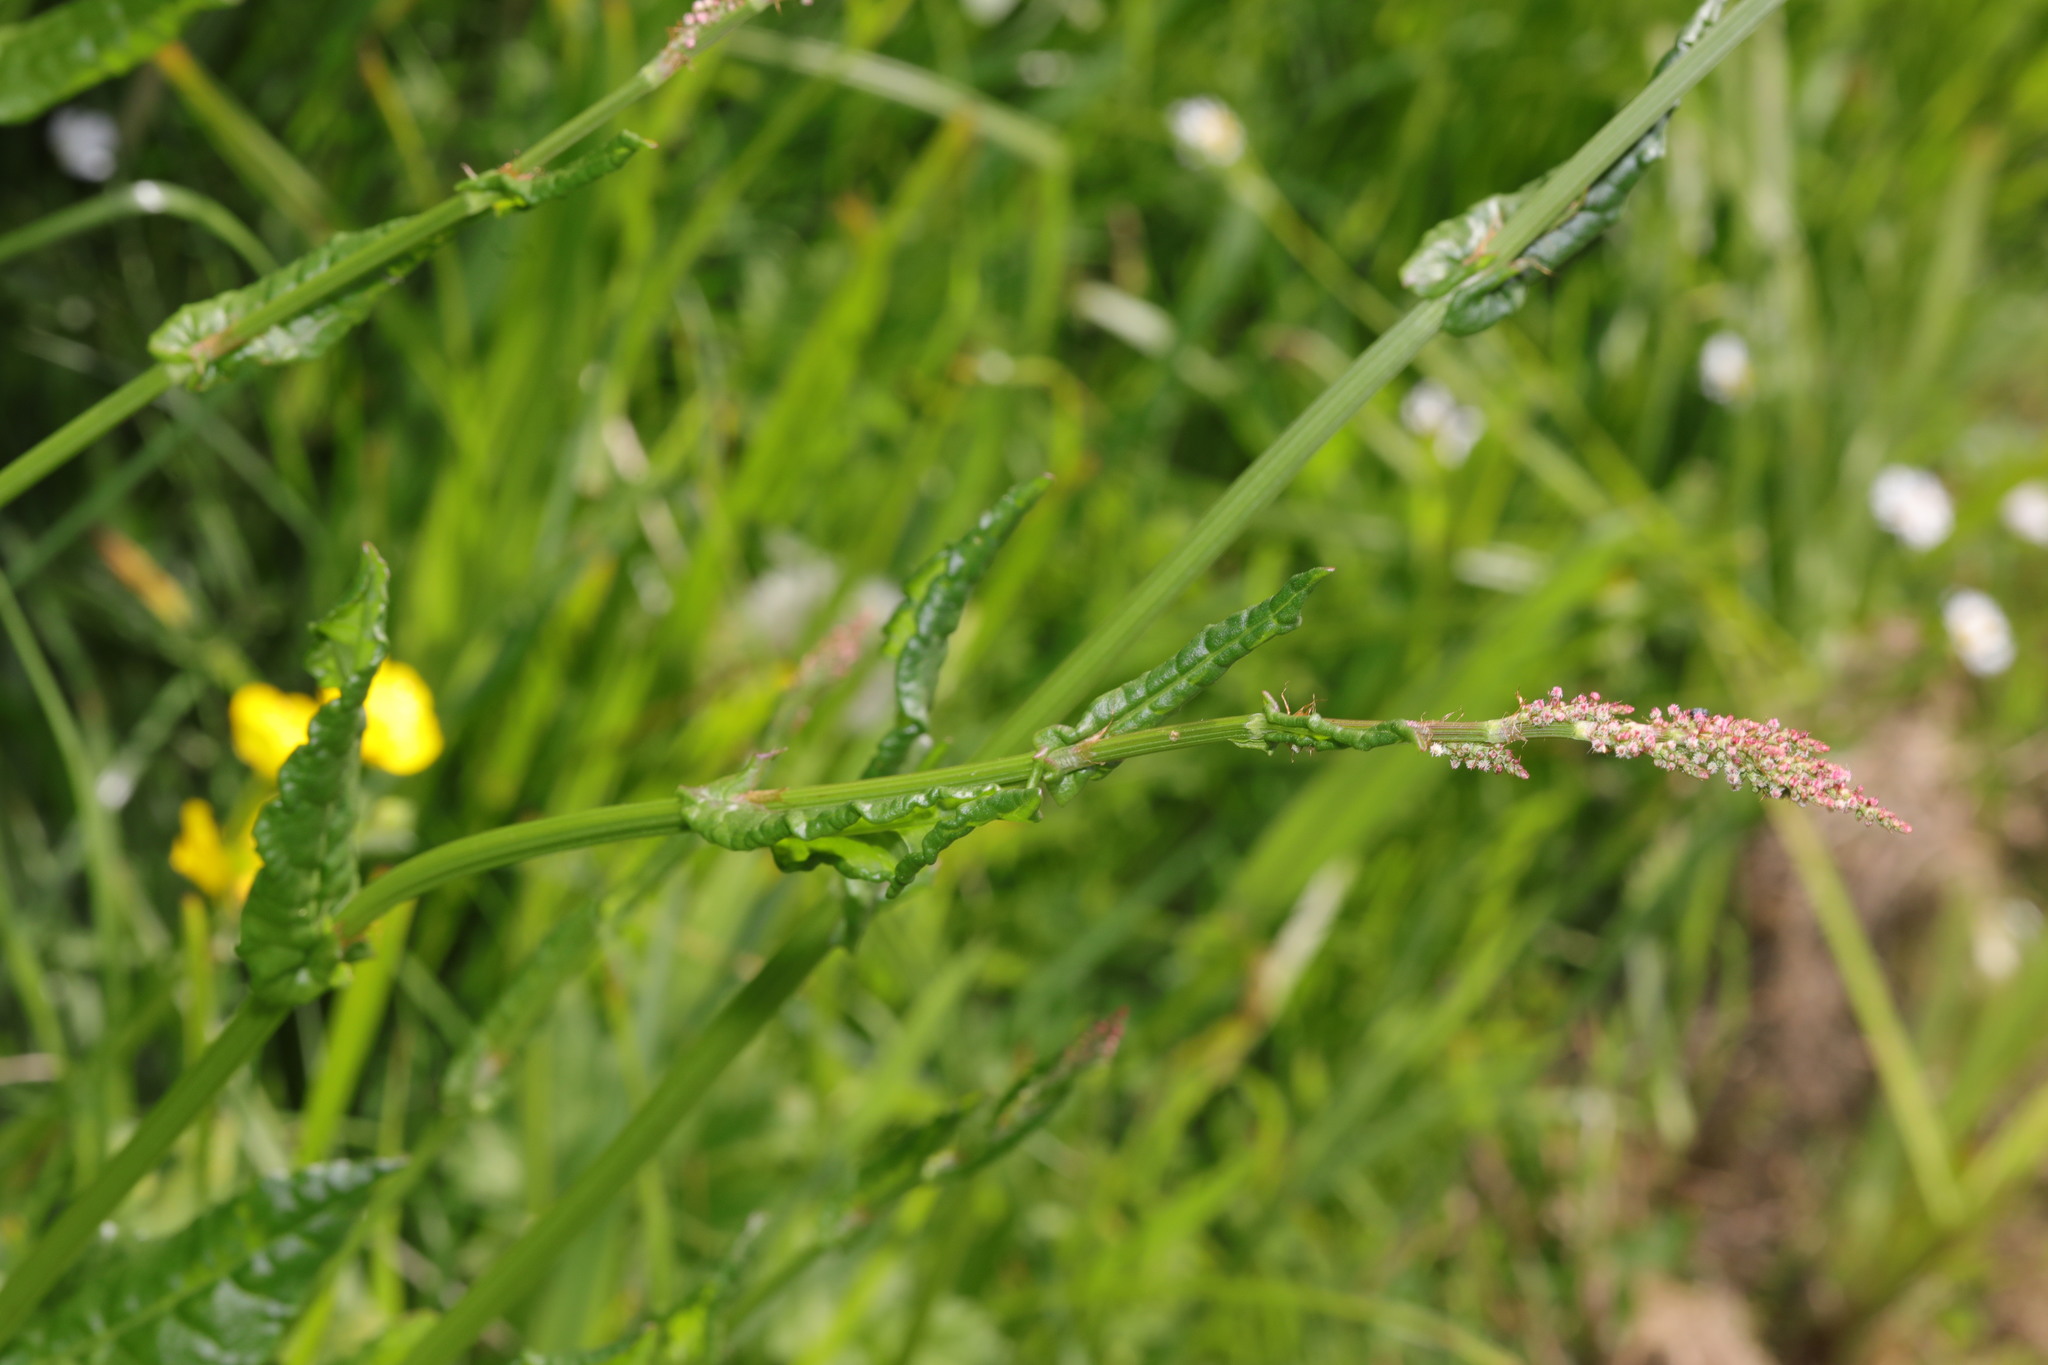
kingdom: Plantae
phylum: Tracheophyta
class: Magnoliopsida
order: Caryophyllales
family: Polygonaceae
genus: Rumex
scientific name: Rumex acetosa
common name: Garden sorrel
